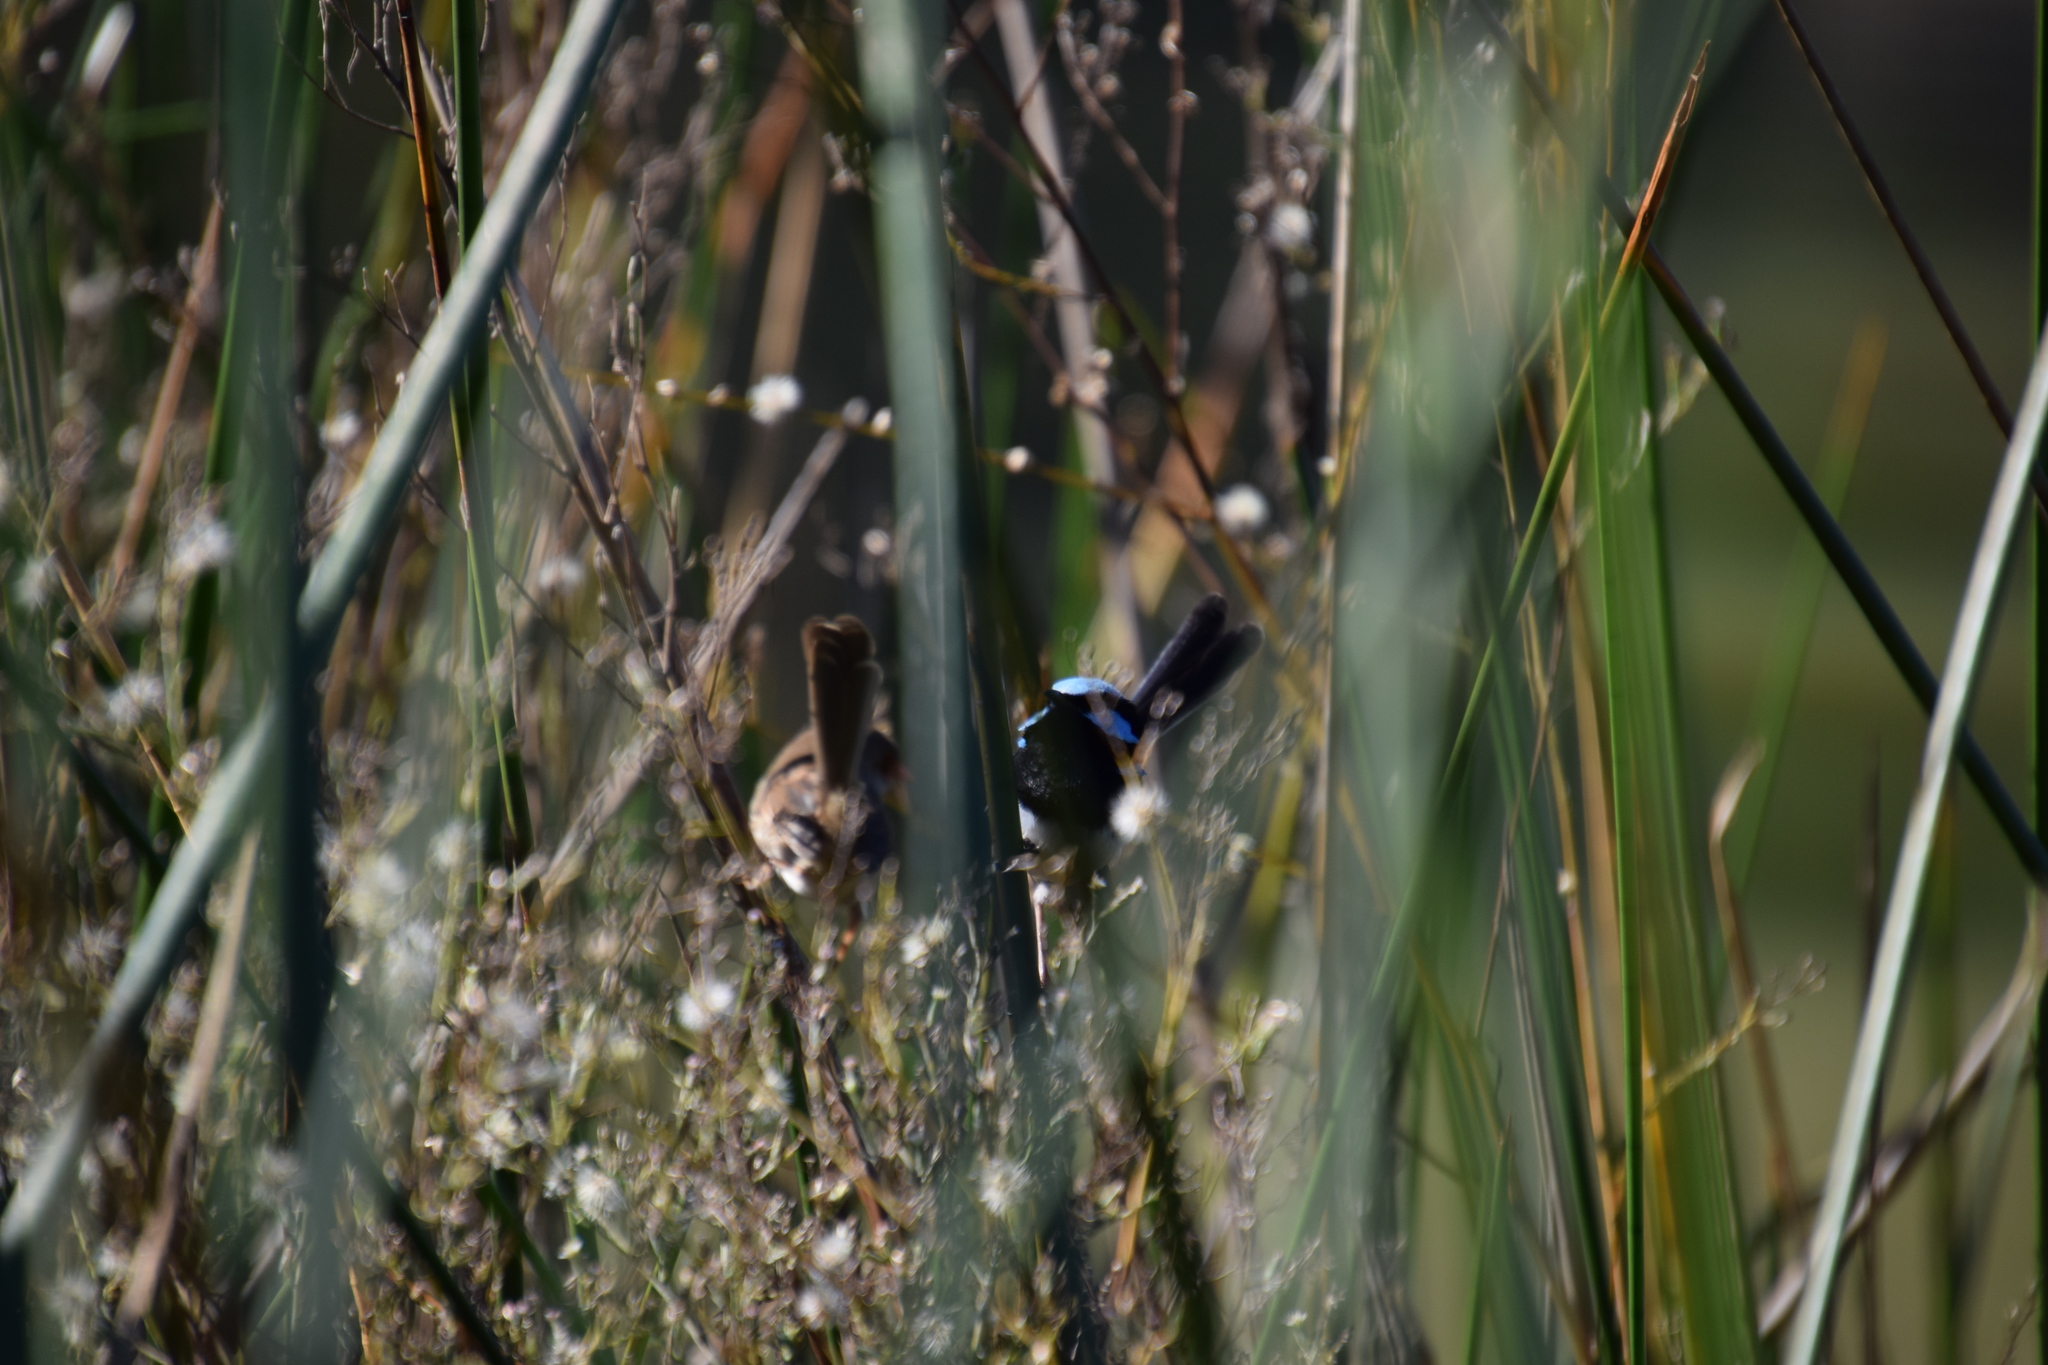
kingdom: Animalia
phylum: Chordata
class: Aves
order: Passeriformes
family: Maluridae
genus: Malurus
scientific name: Malurus cyaneus
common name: Superb fairywren
